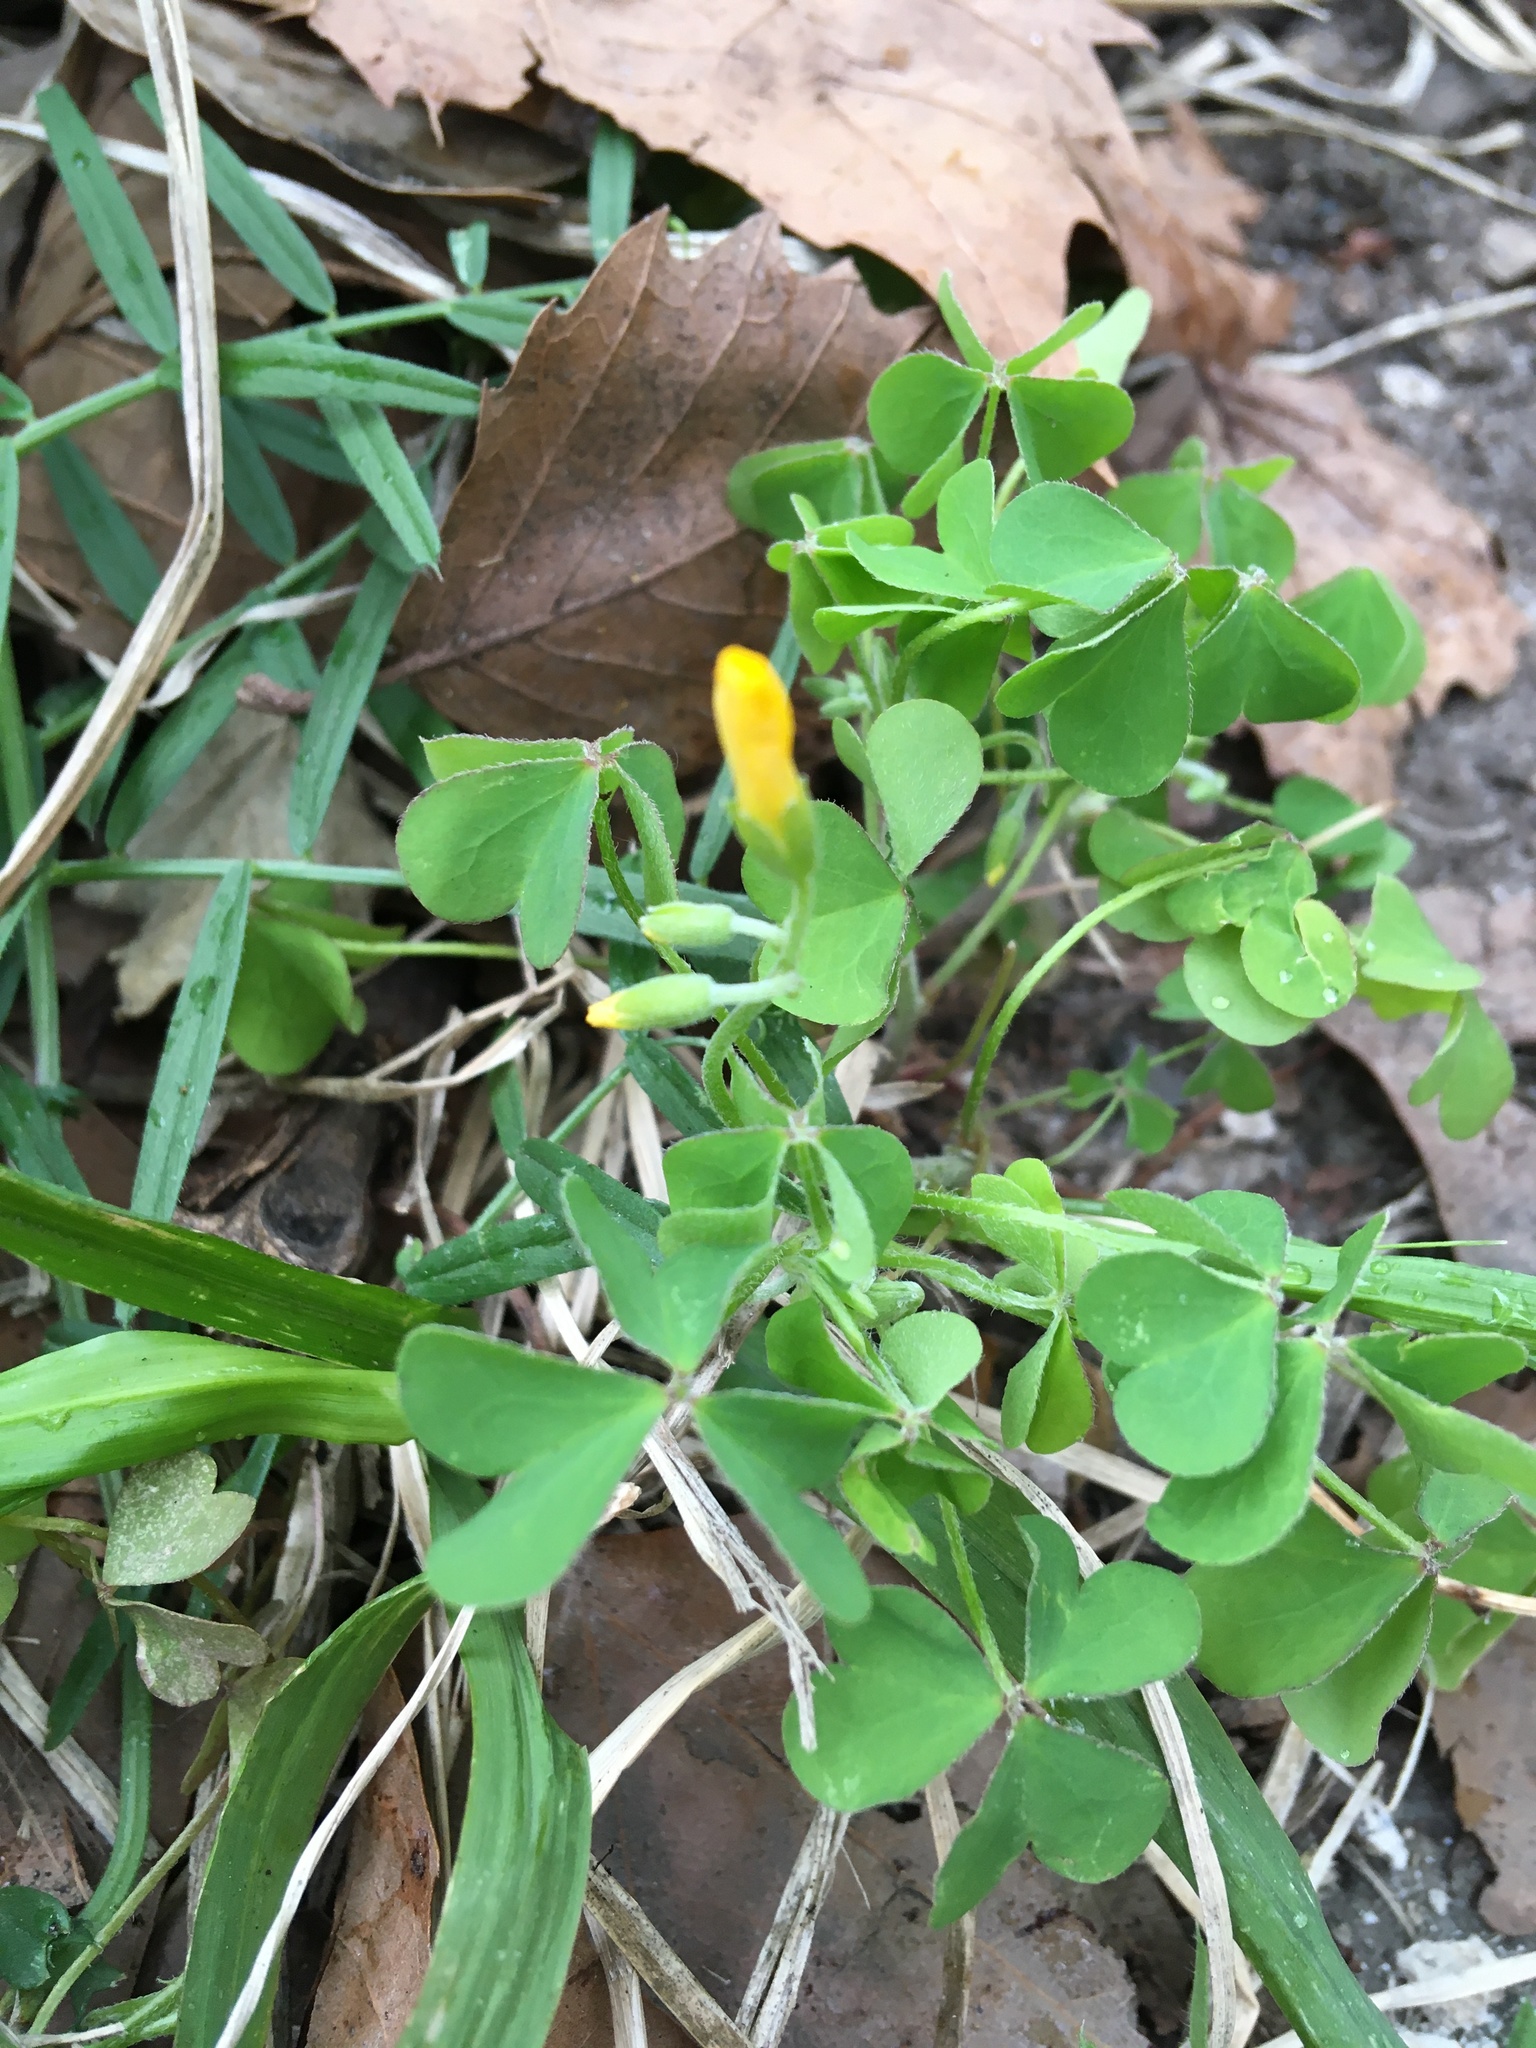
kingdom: Plantae
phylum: Tracheophyta
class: Magnoliopsida
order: Oxalidales
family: Oxalidaceae
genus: Oxalis
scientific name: Oxalis dillenii
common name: Sussex yellow-sorrel
